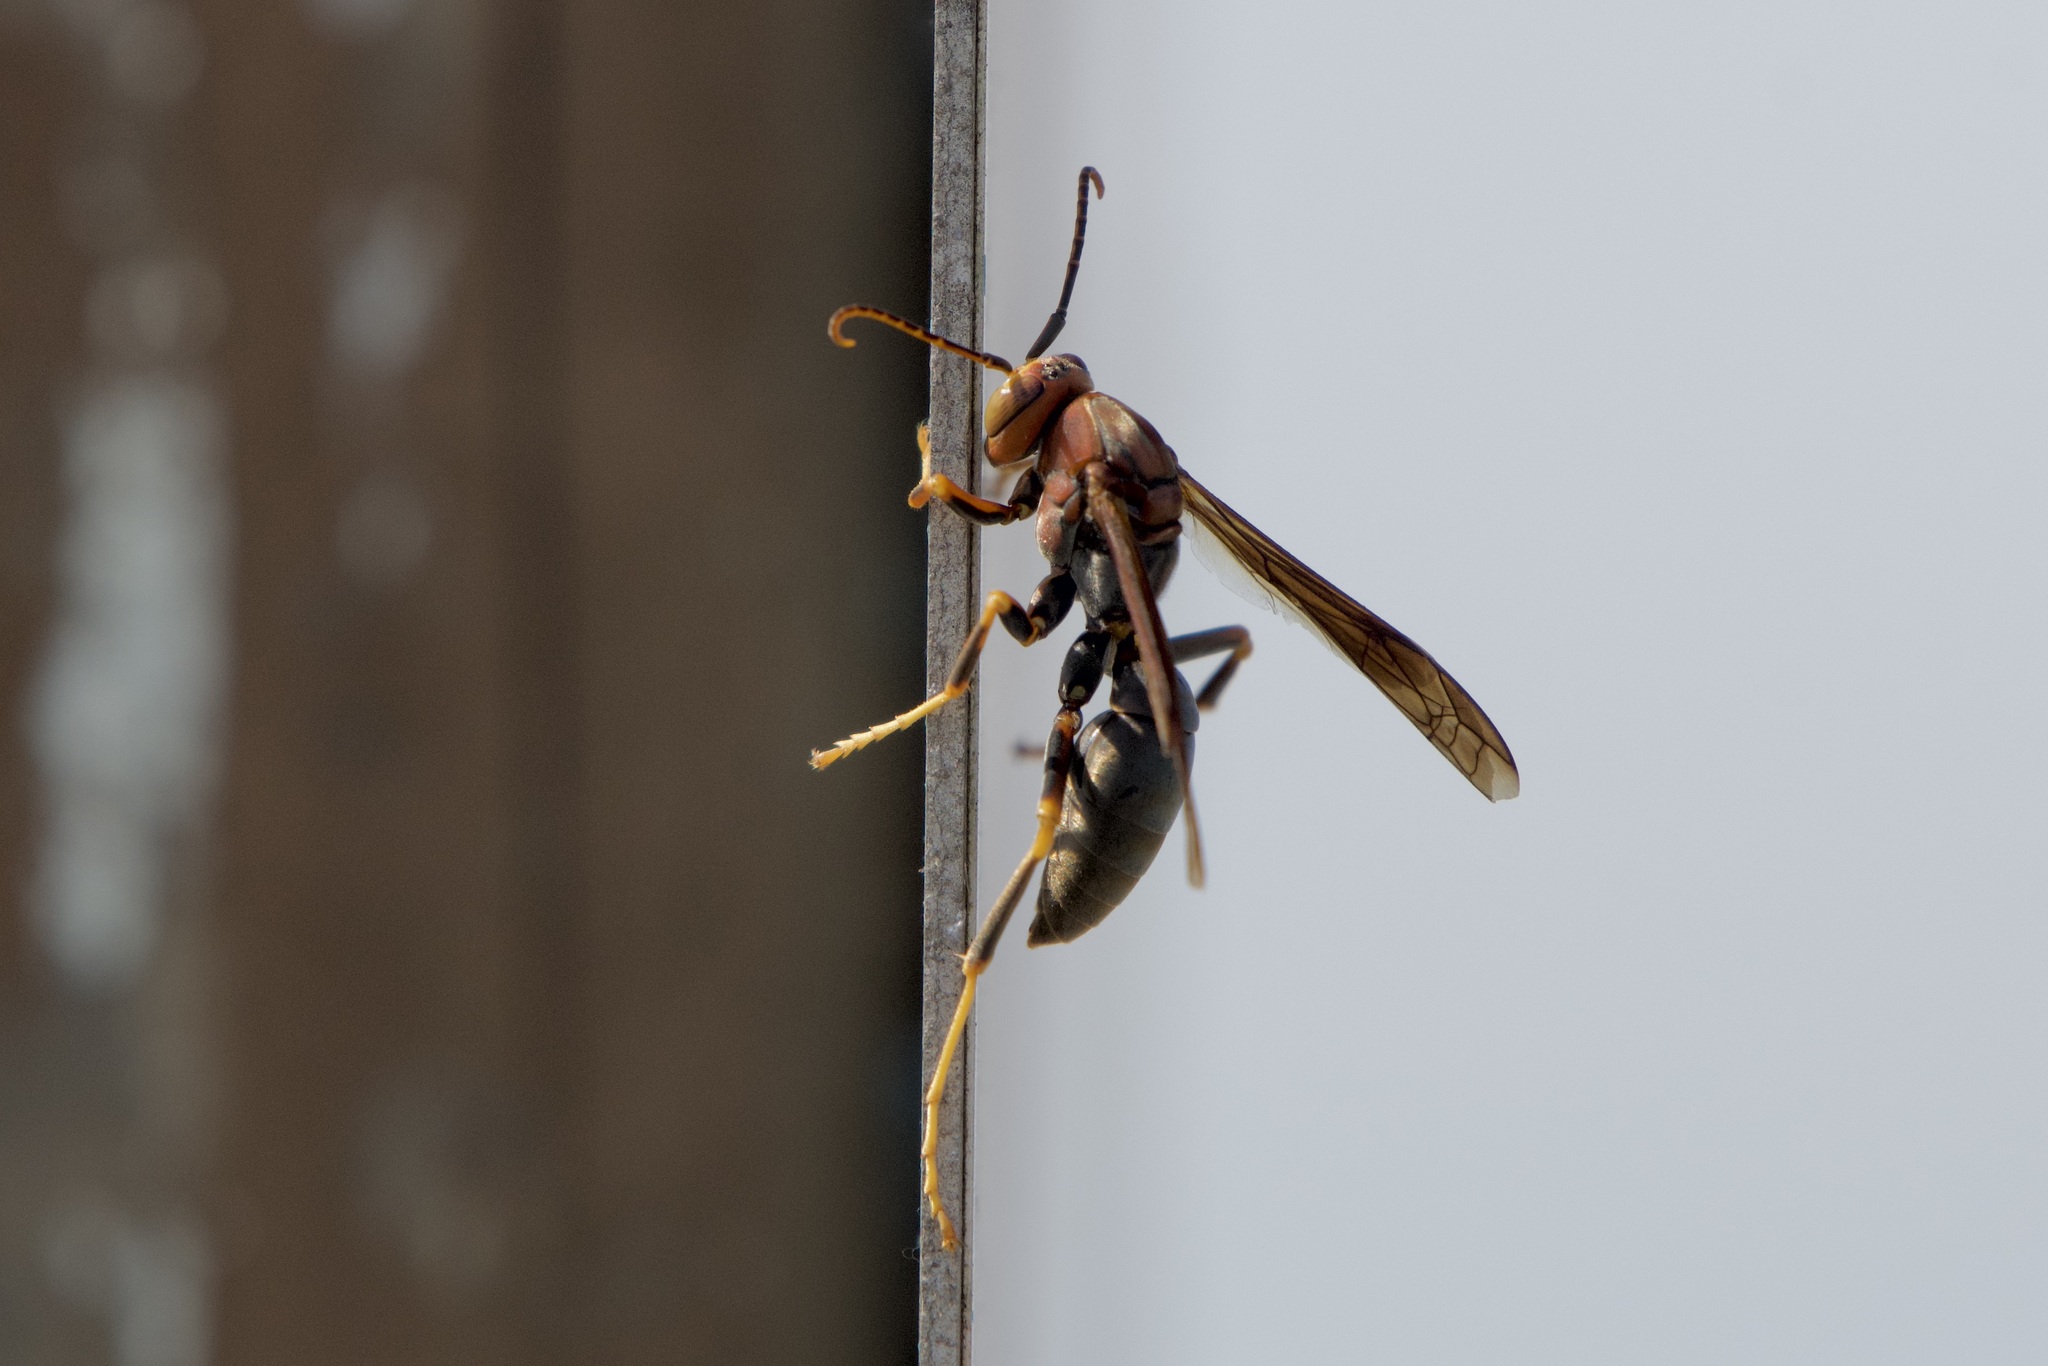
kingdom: Animalia
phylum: Arthropoda
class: Insecta
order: Hymenoptera
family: Eumenidae
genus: Polistes
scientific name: Polistes metricus
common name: Metric paper wasp
